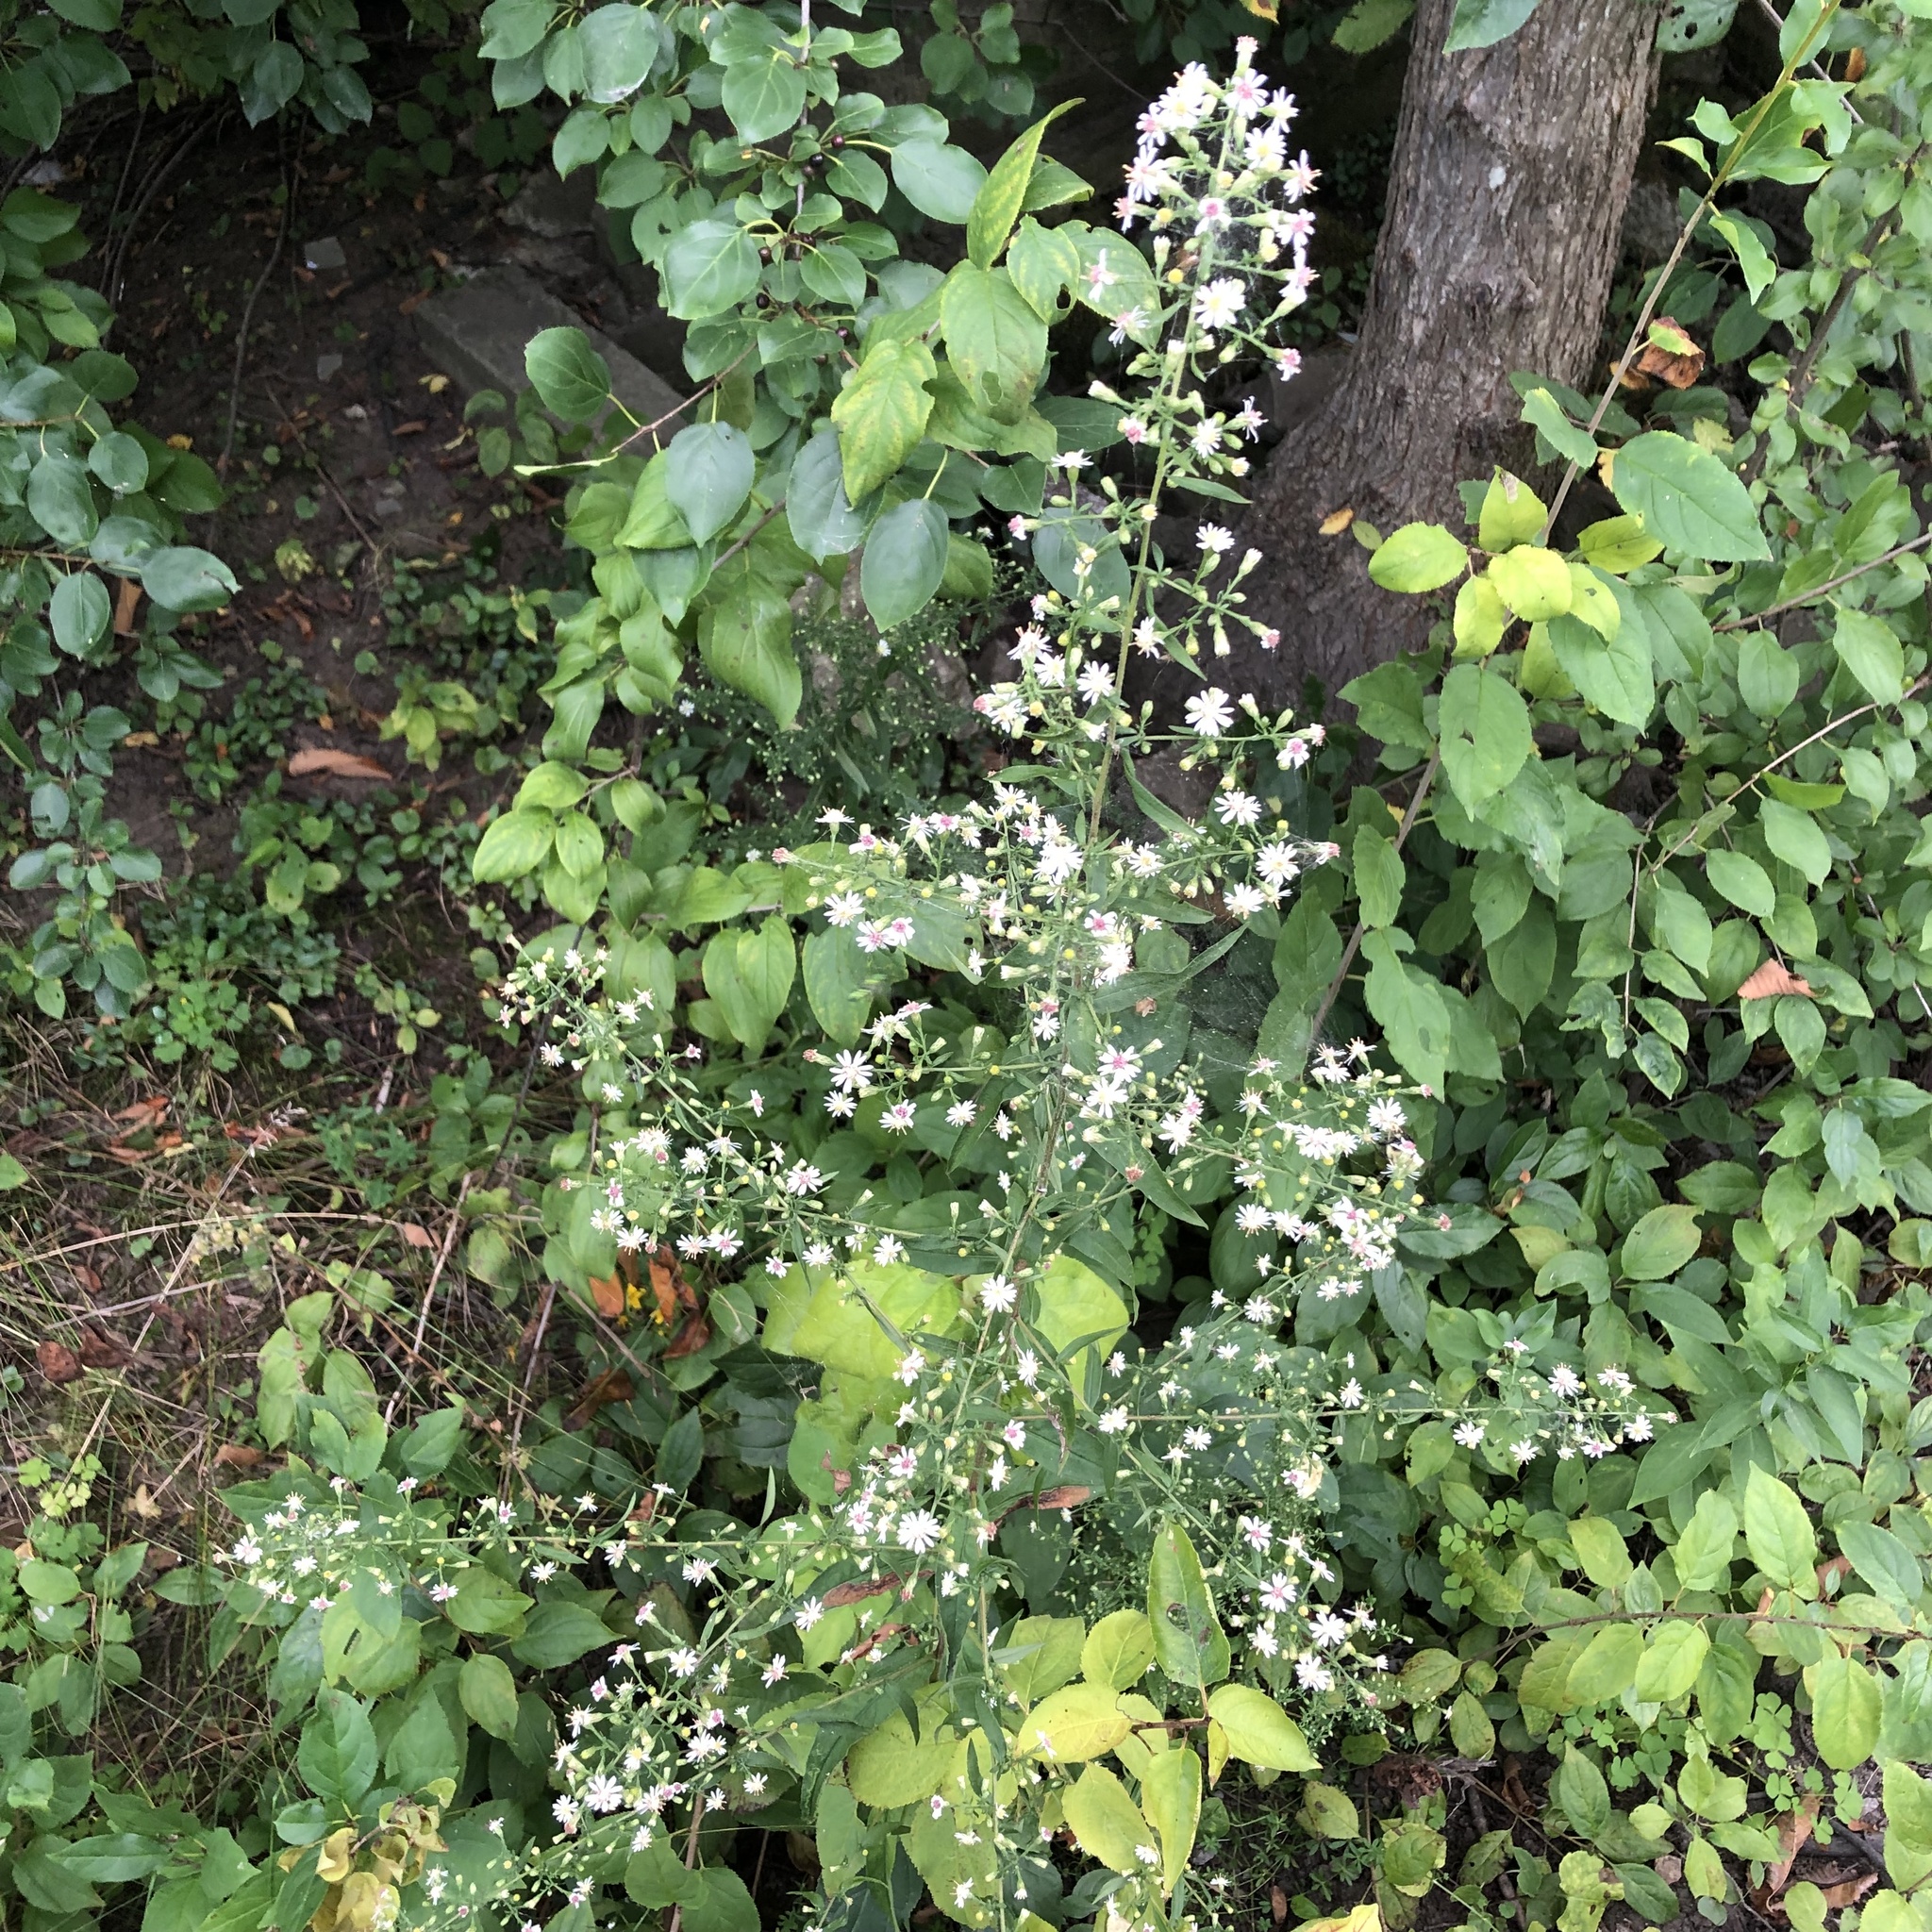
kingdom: Plantae
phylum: Tracheophyta
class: Magnoliopsida
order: Asterales
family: Asteraceae
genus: Symphyotrichum
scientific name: Symphyotrichum lateriflorum
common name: Calico aster
